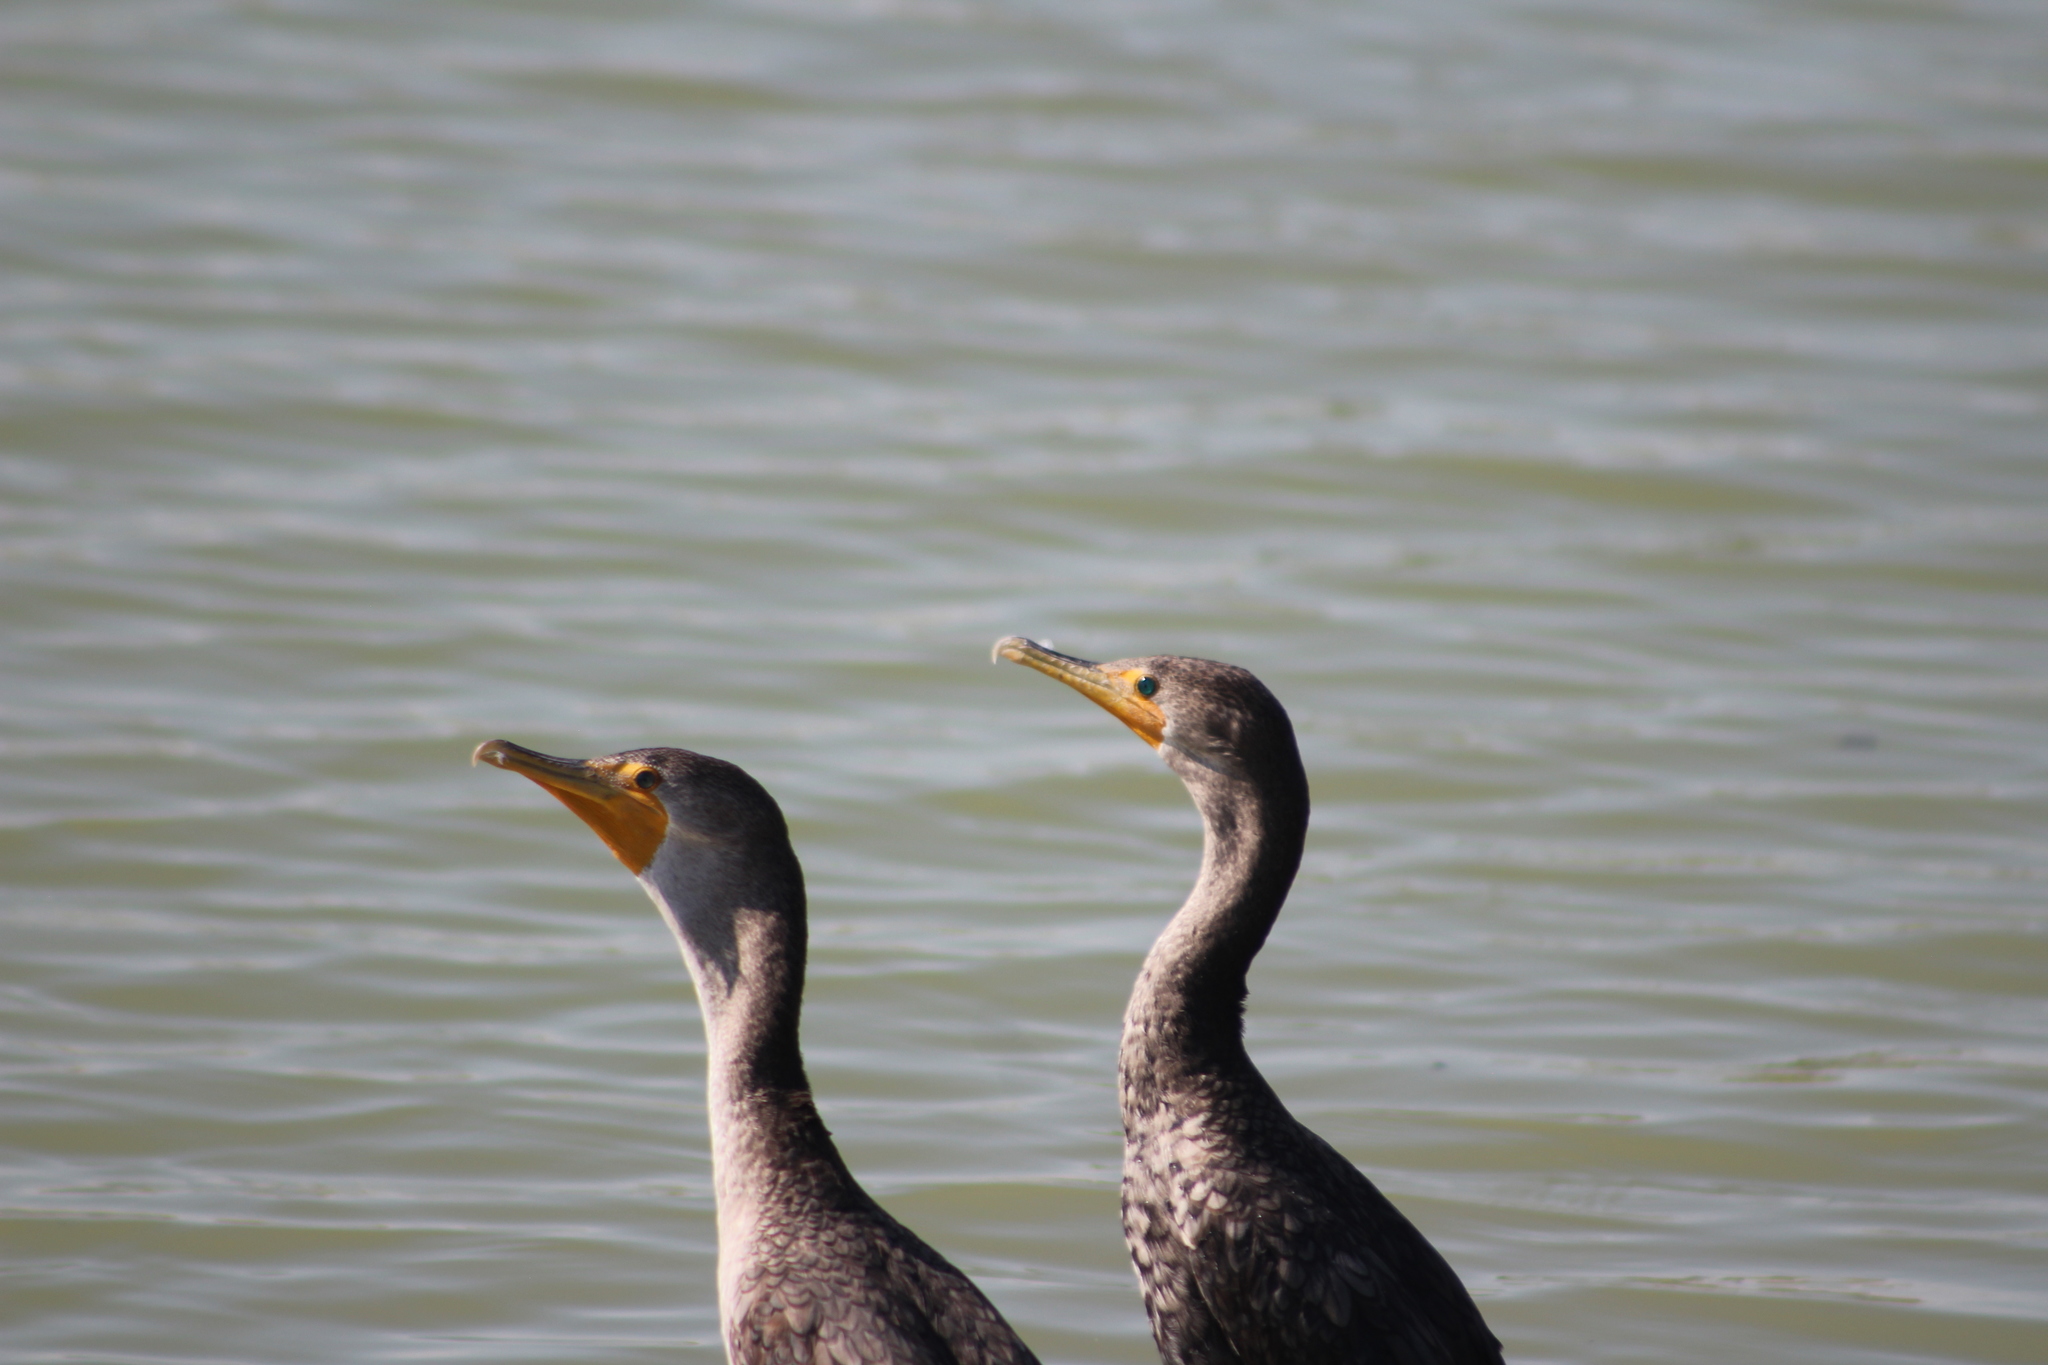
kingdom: Animalia
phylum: Chordata
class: Aves
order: Suliformes
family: Phalacrocoracidae
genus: Phalacrocorax
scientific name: Phalacrocorax auritus
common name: Double-crested cormorant
